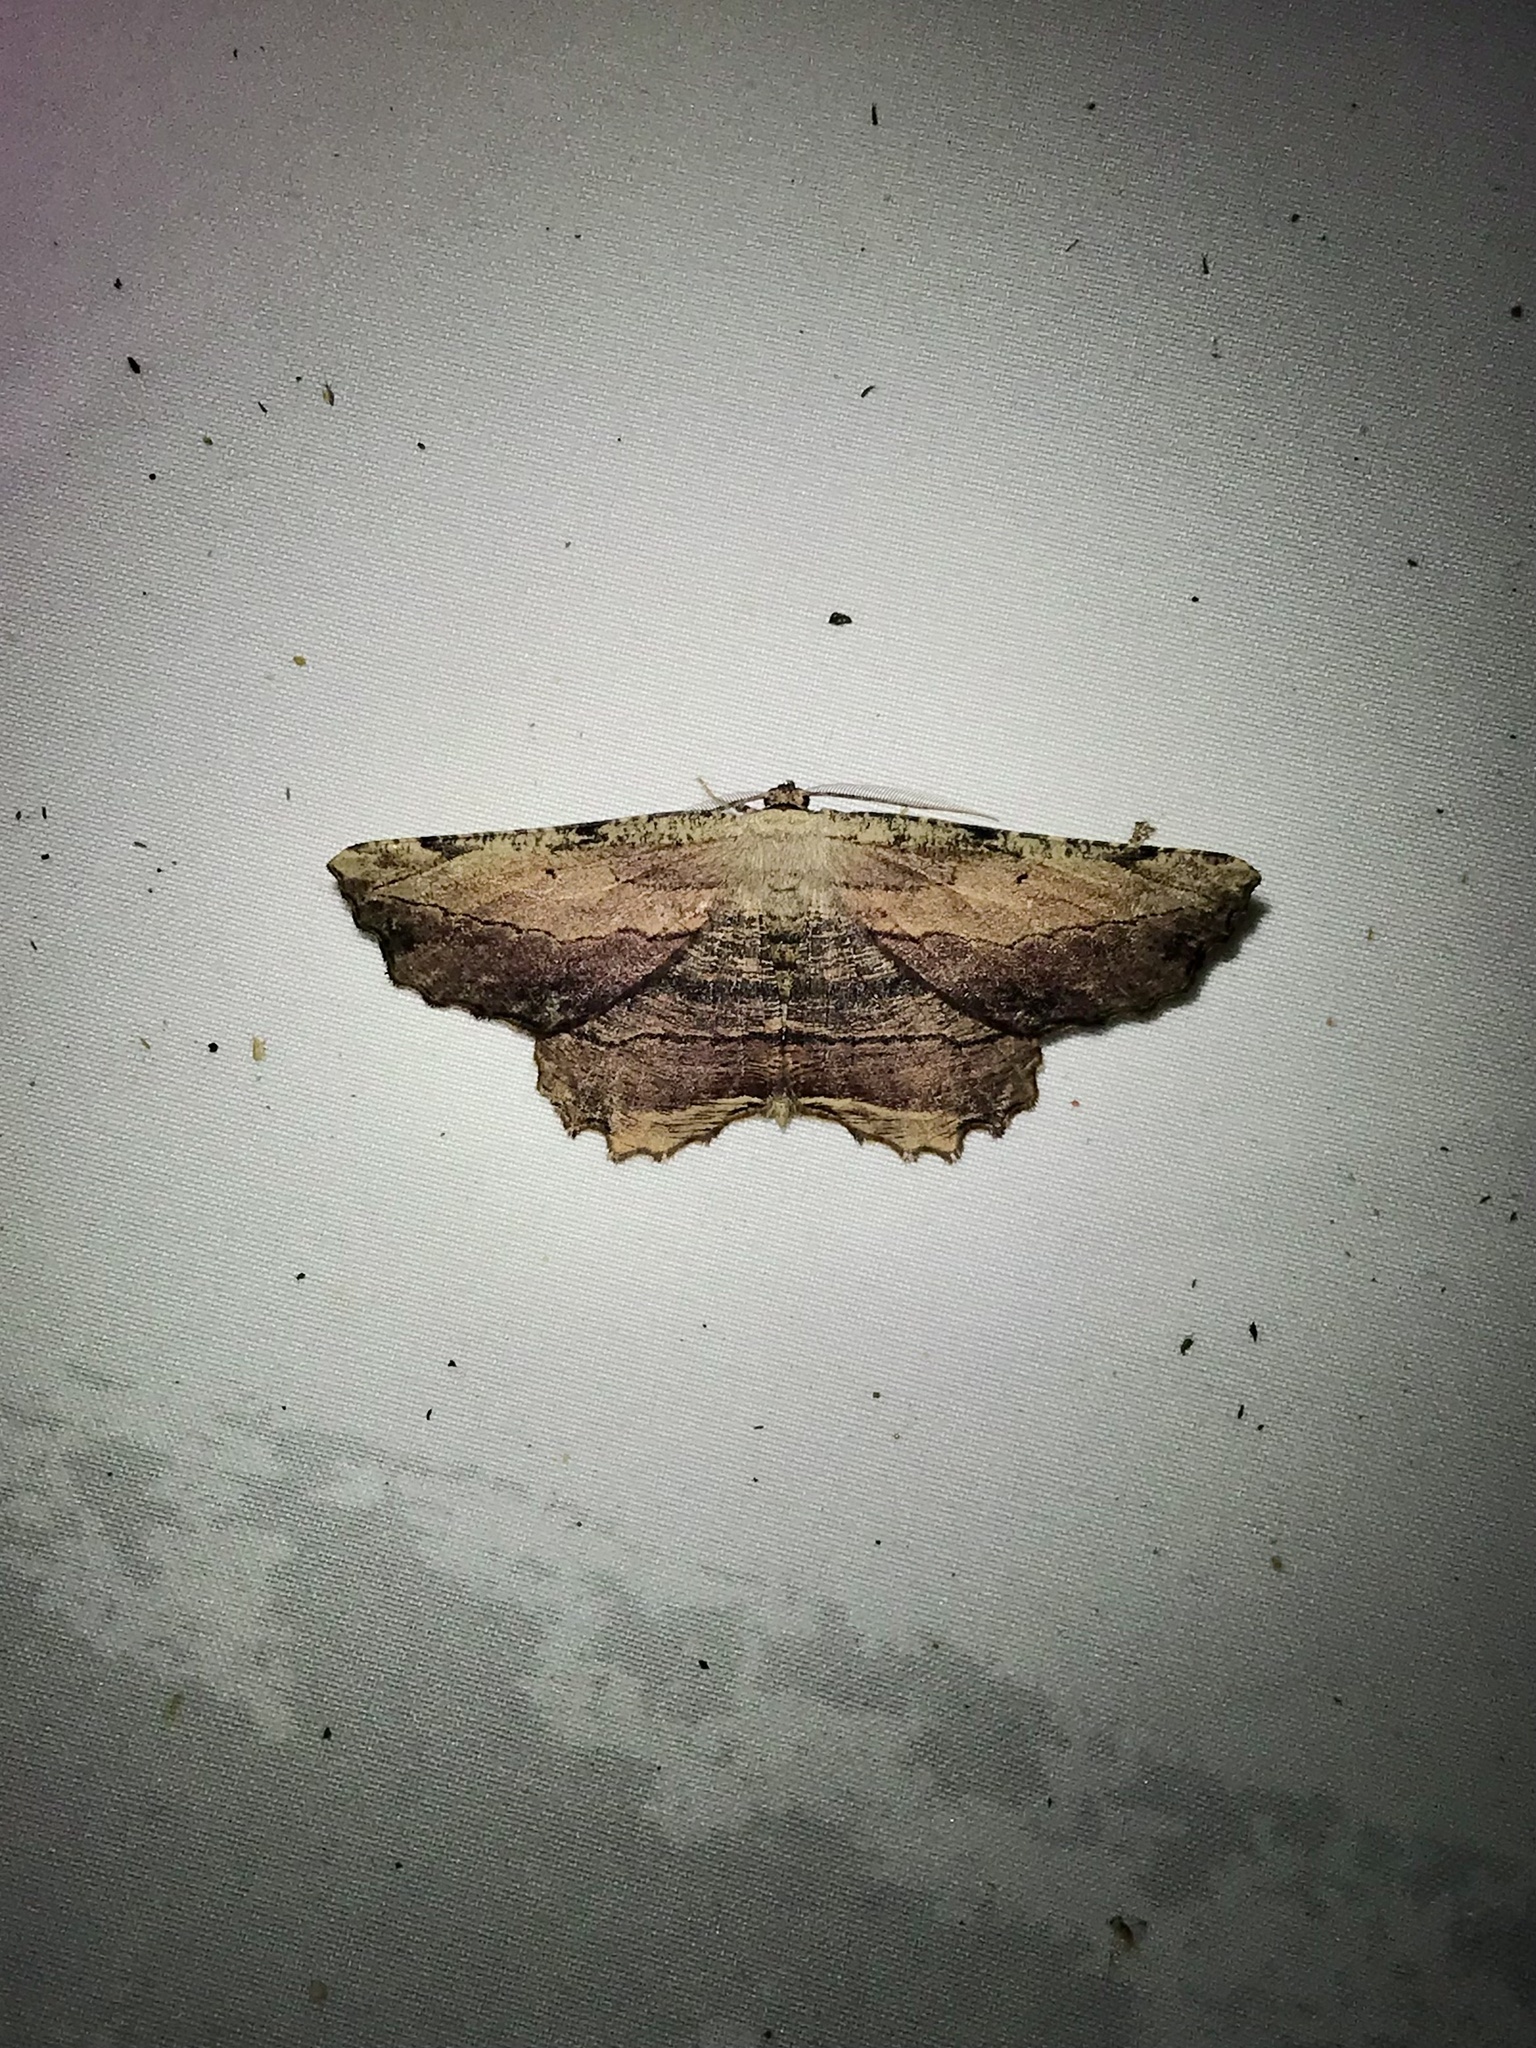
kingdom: Animalia
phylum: Arthropoda
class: Insecta
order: Lepidoptera
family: Geometridae
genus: Lytrosis
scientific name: Lytrosis unitaria
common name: Common lytrosis
